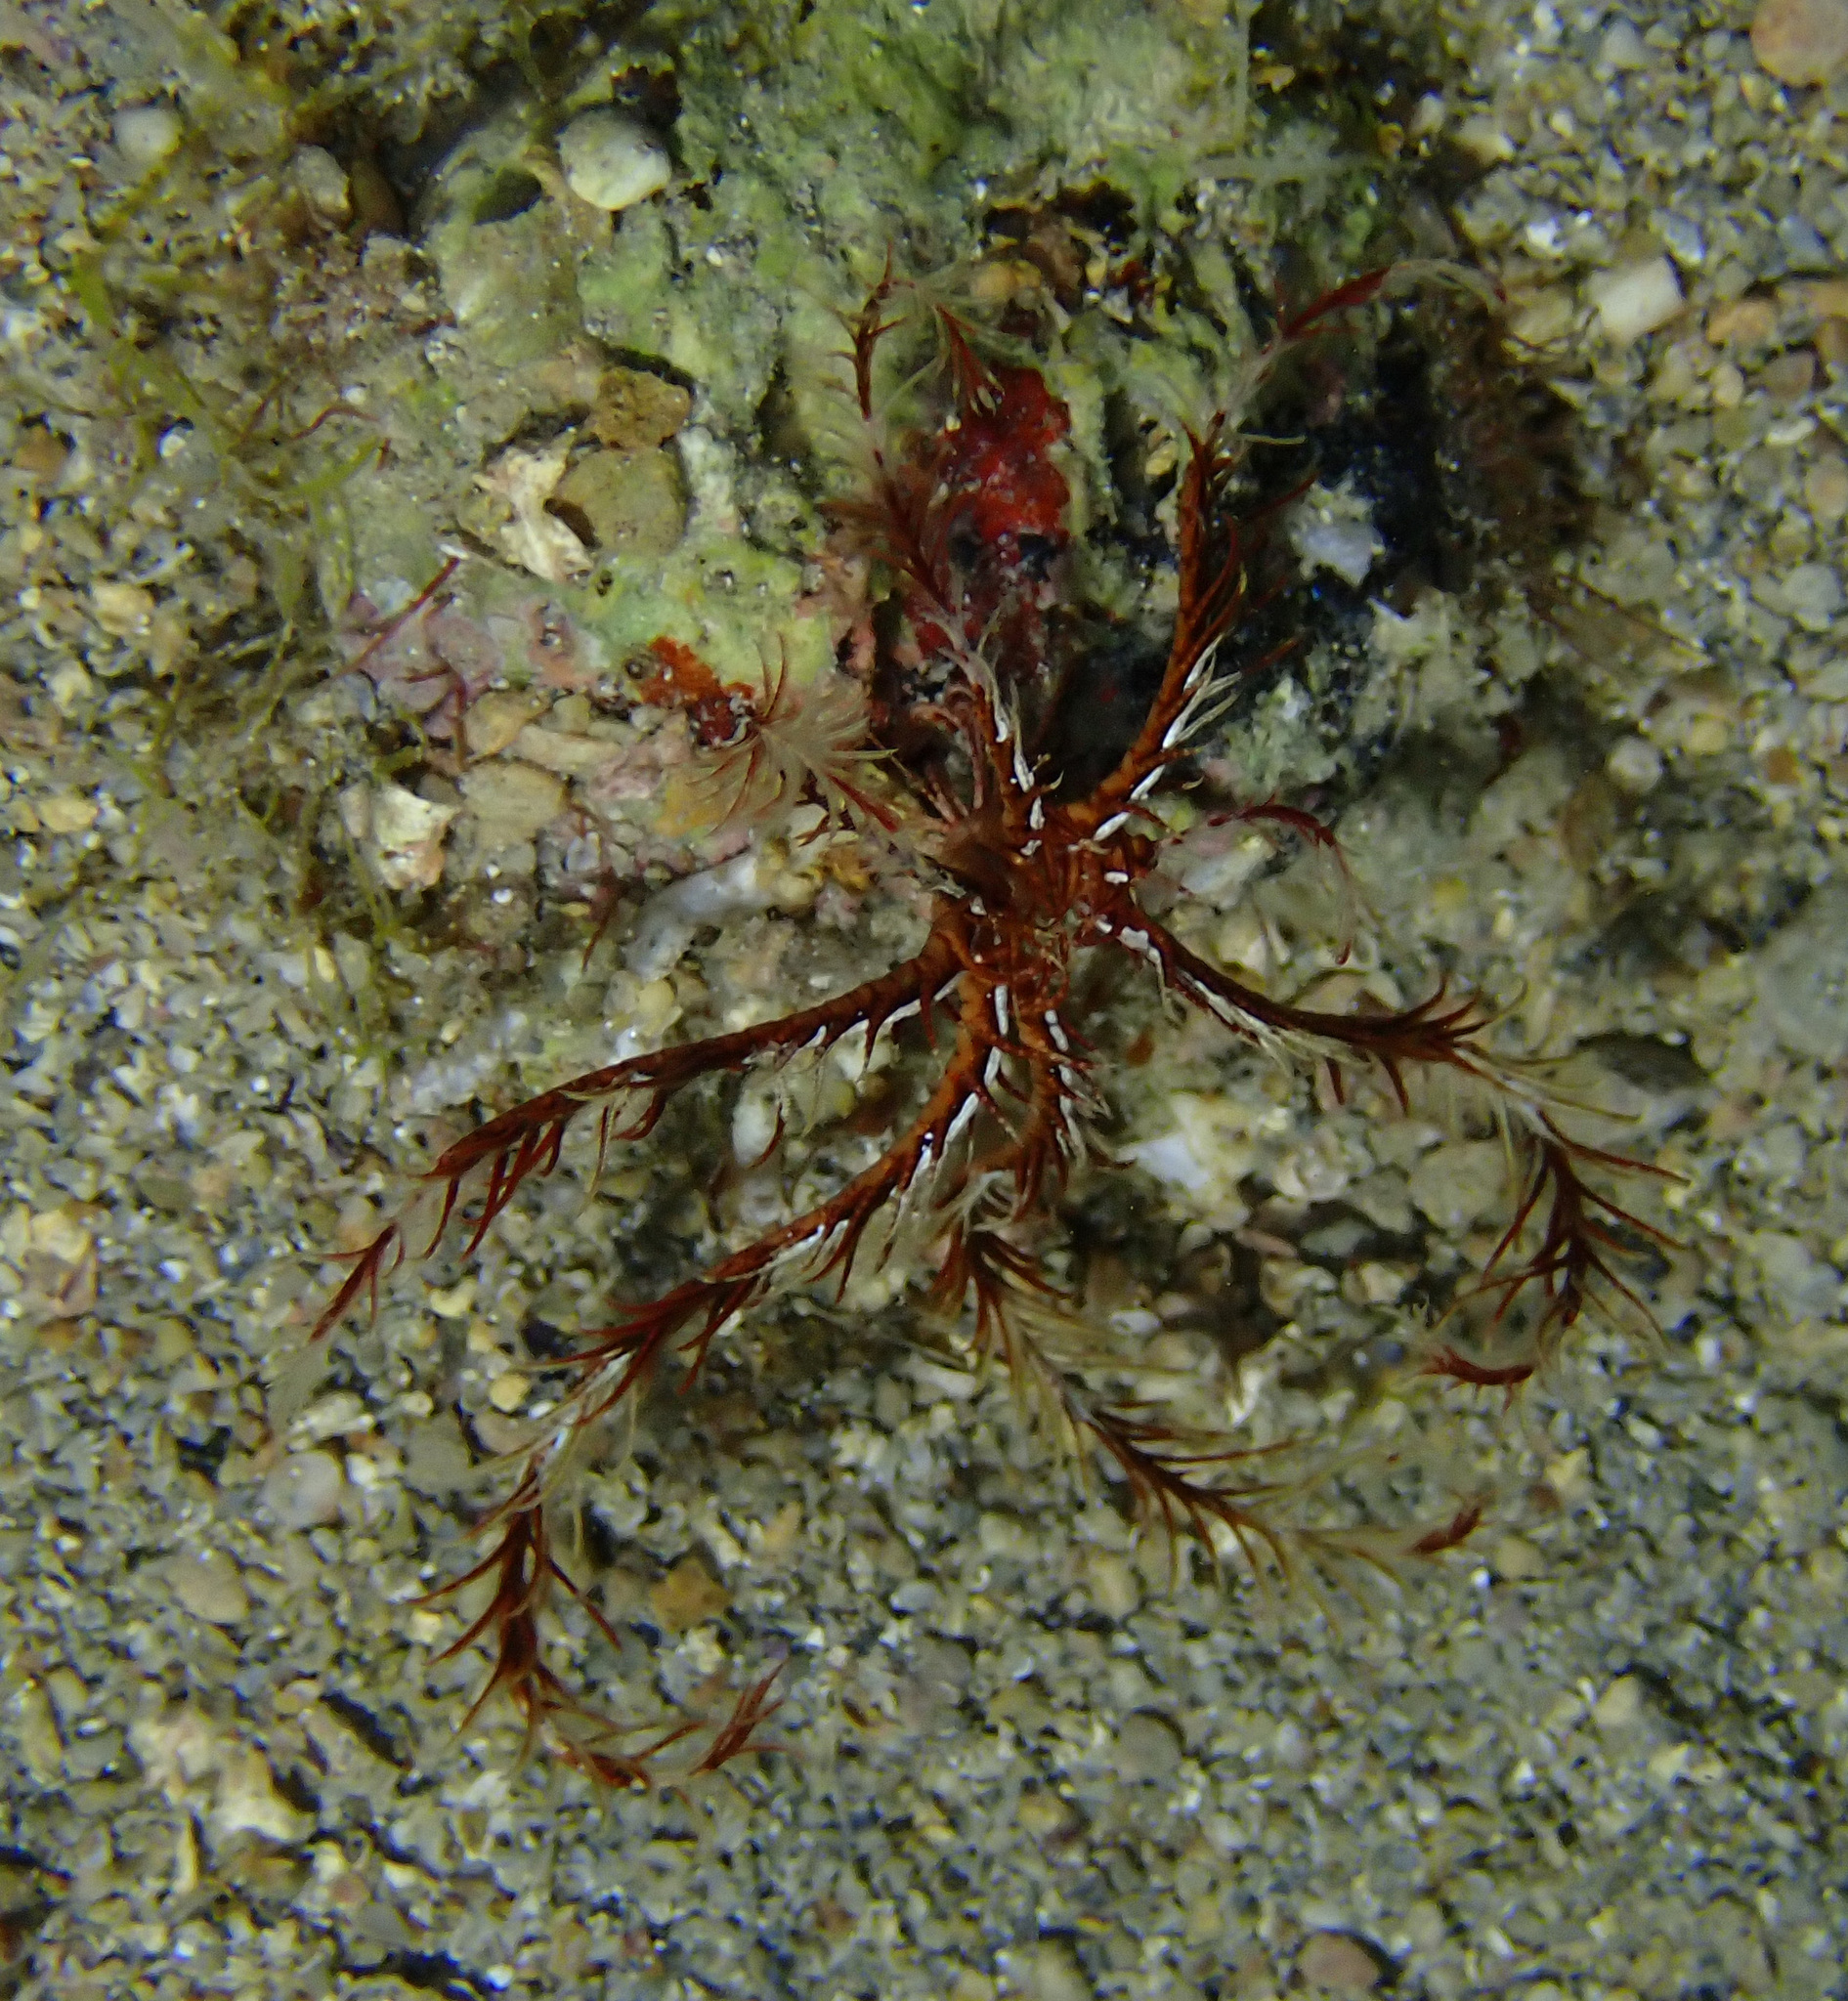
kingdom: Animalia
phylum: Echinodermata
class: Crinoidea
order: Comatulida
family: Antedonidae
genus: Antedon
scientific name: Antedon mediterranea
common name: Feather star
